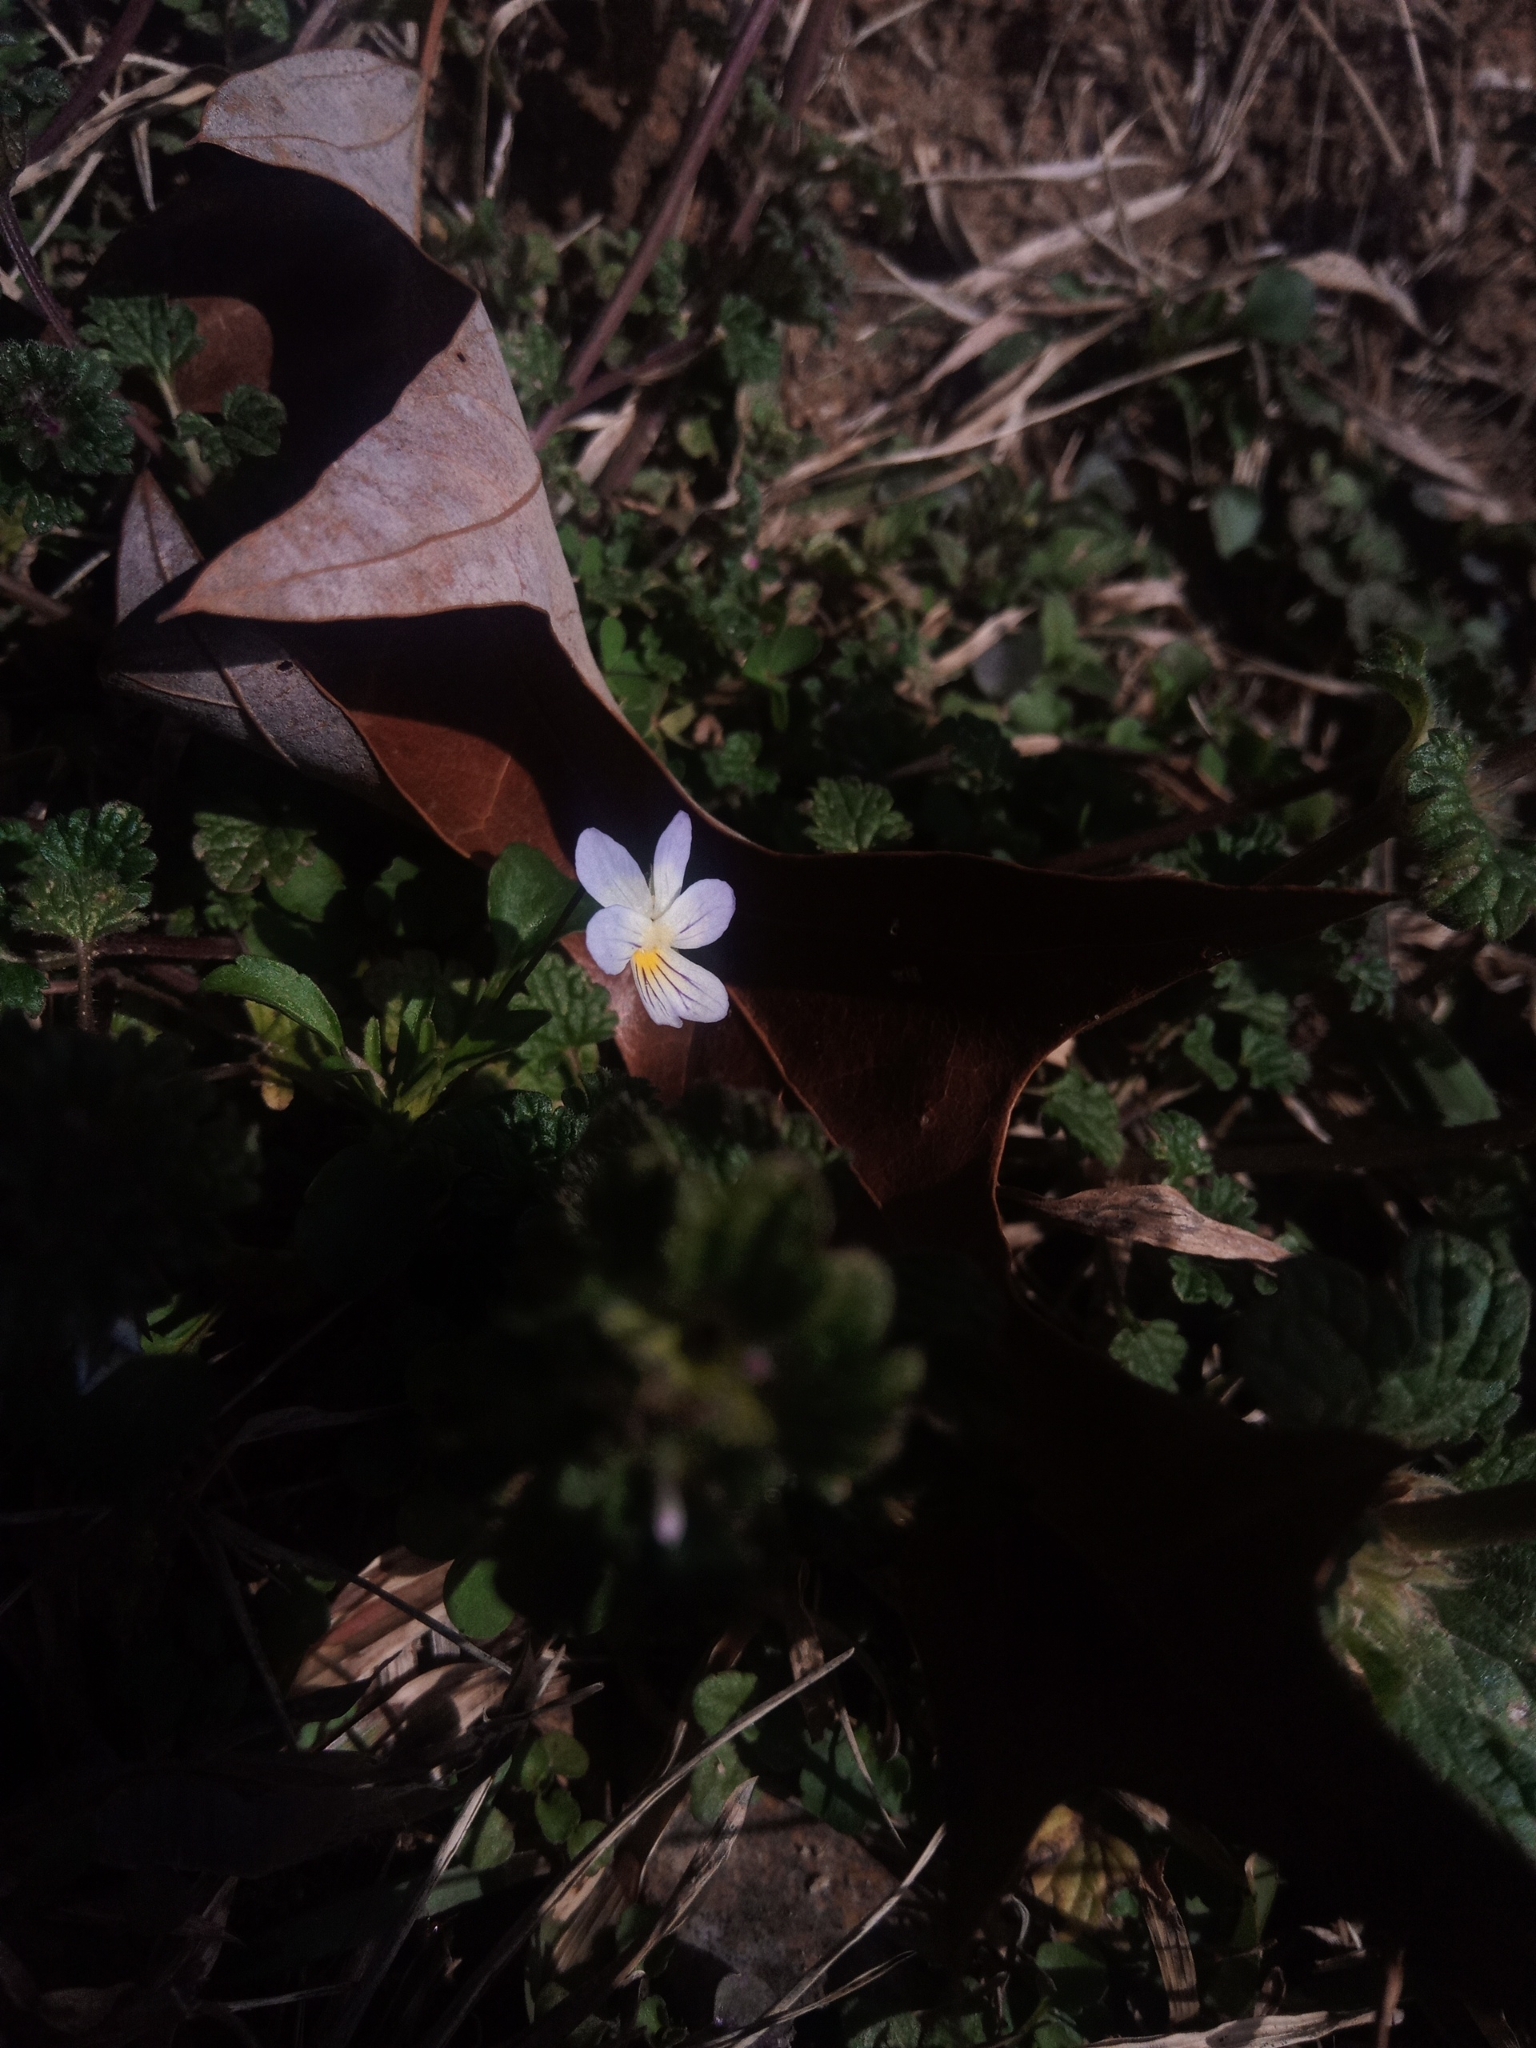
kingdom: Plantae
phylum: Tracheophyta
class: Magnoliopsida
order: Malpighiales
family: Violaceae
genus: Viola
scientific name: Viola rafinesquei
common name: American field pansy
